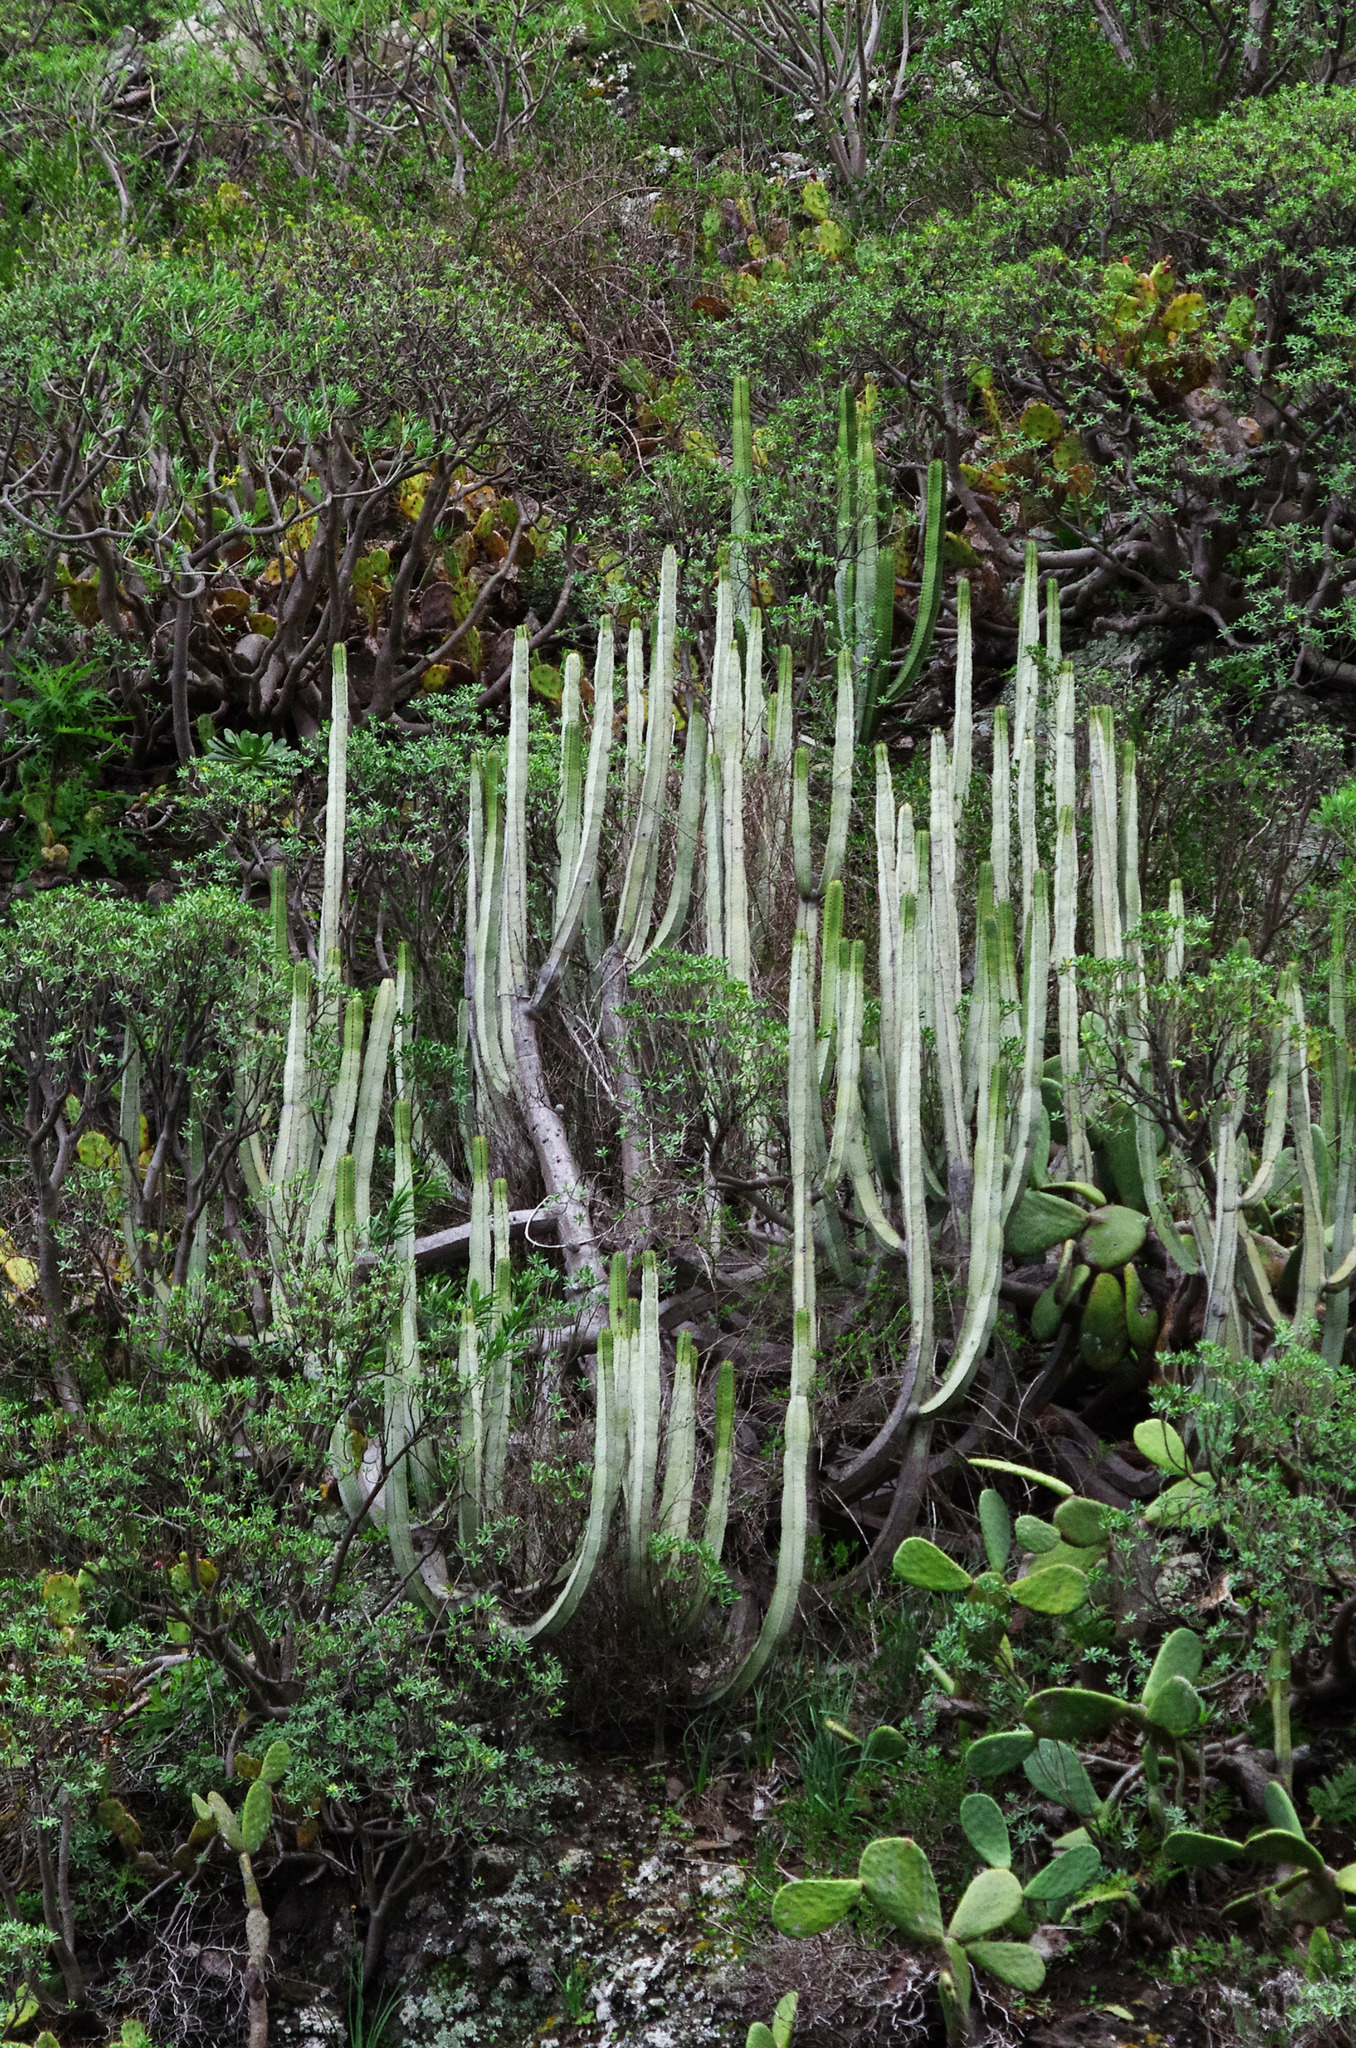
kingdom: Plantae
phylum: Tracheophyta
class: Magnoliopsida
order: Malpighiales
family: Euphorbiaceae
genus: Euphorbia
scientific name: Euphorbia canariensis
